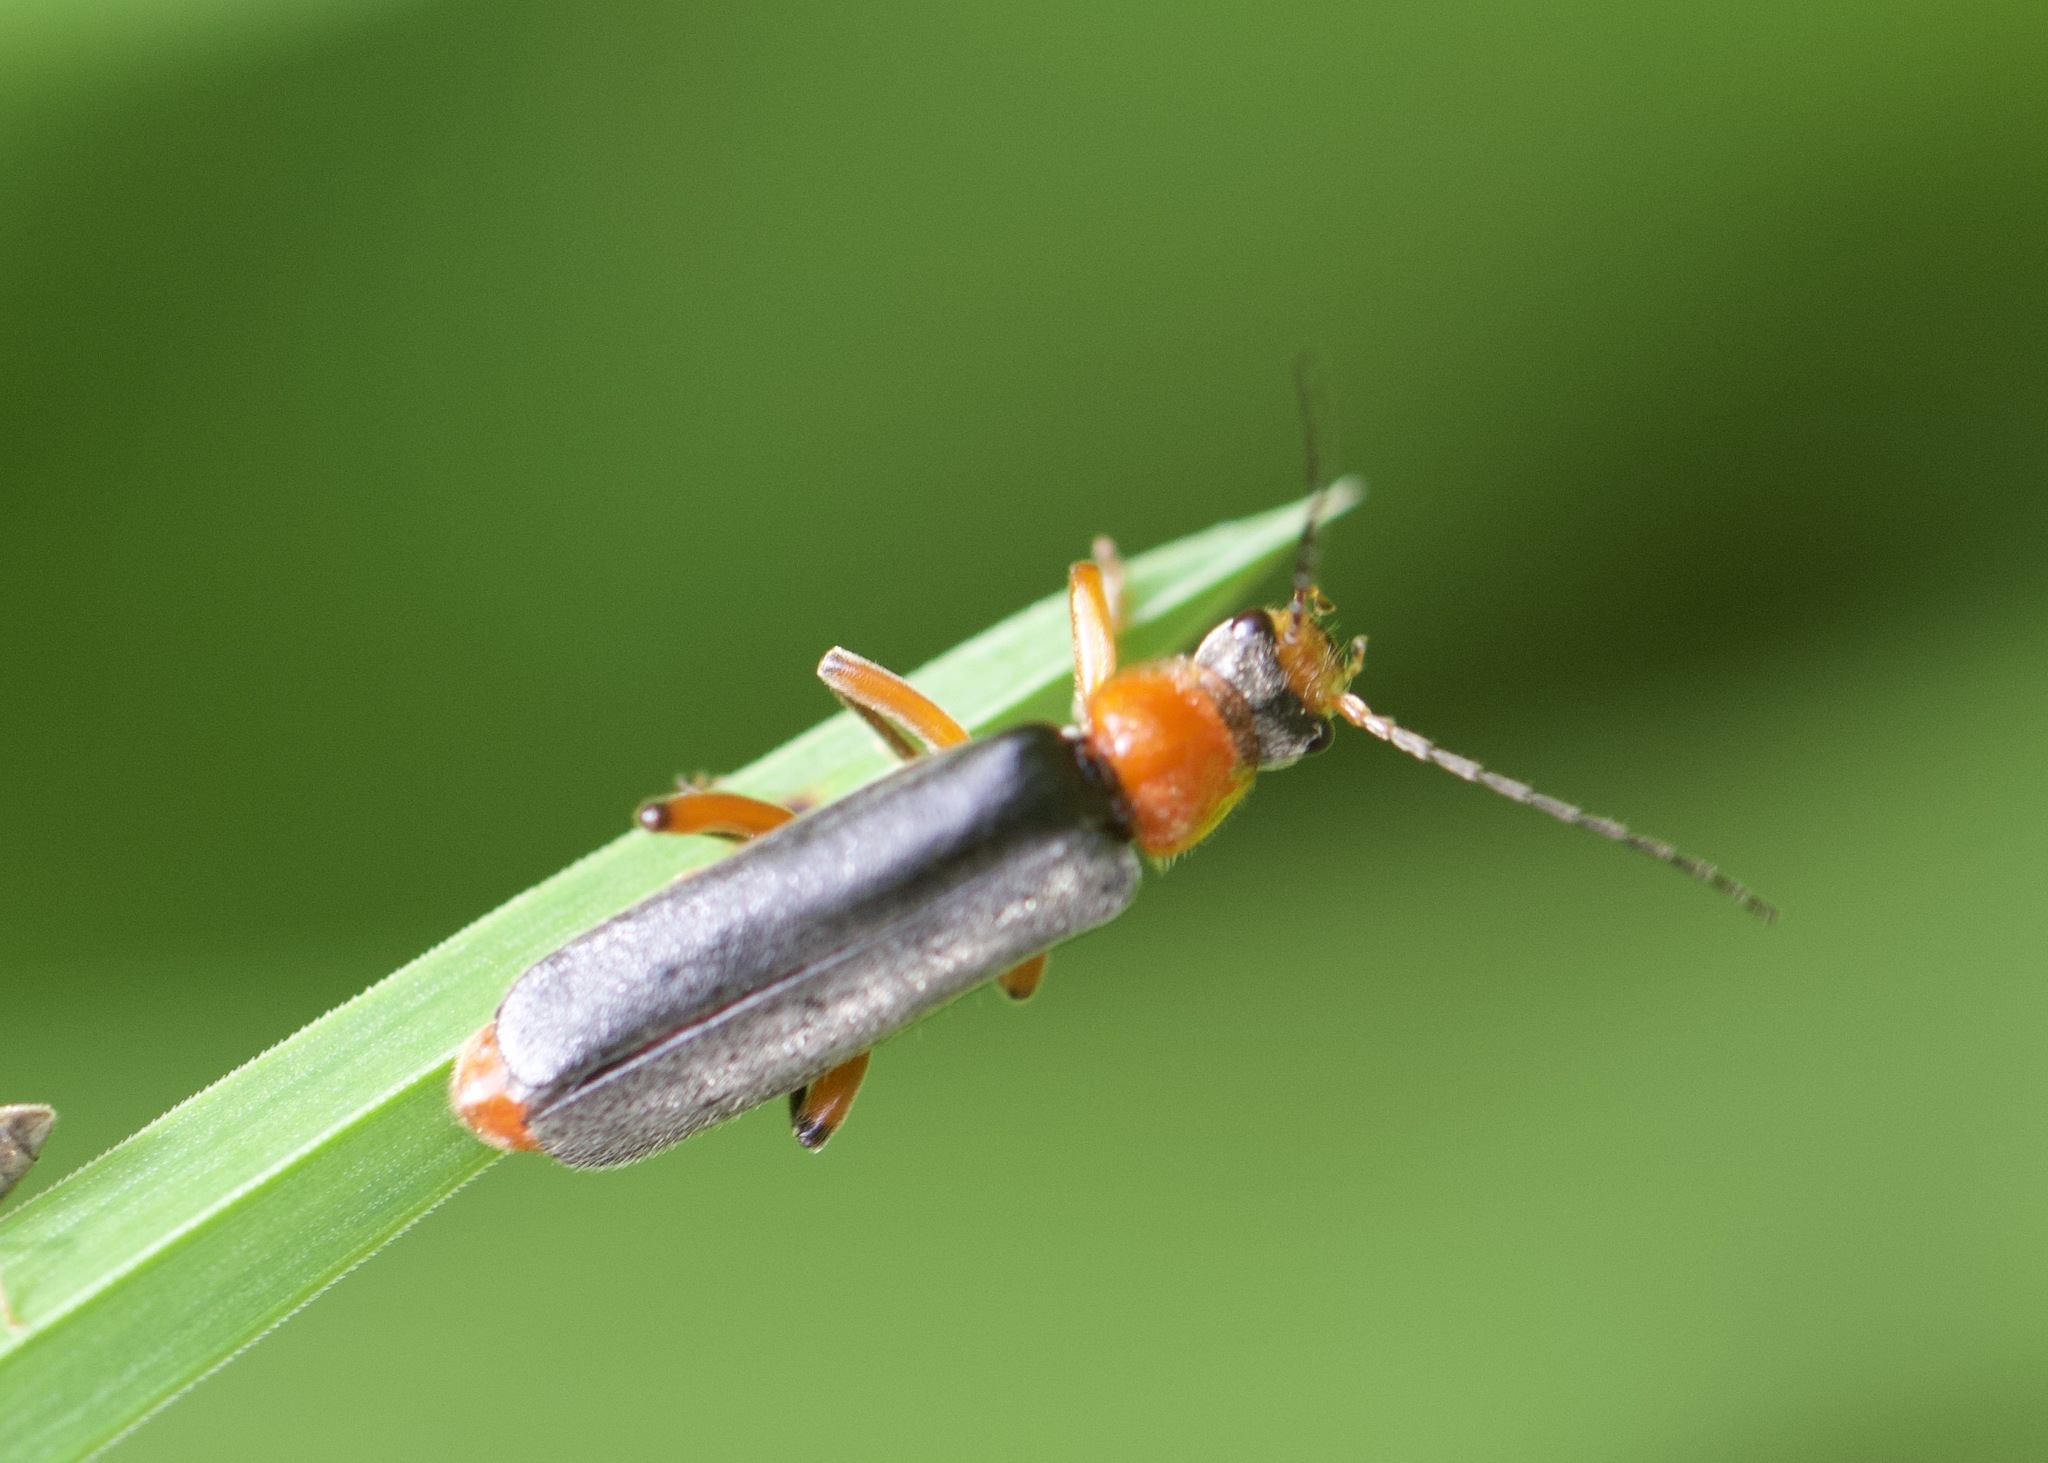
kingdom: Animalia
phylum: Arthropoda
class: Insecta
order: Coleoptera
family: Cantharidae
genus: Cantharis
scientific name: Cantharis pellucida
